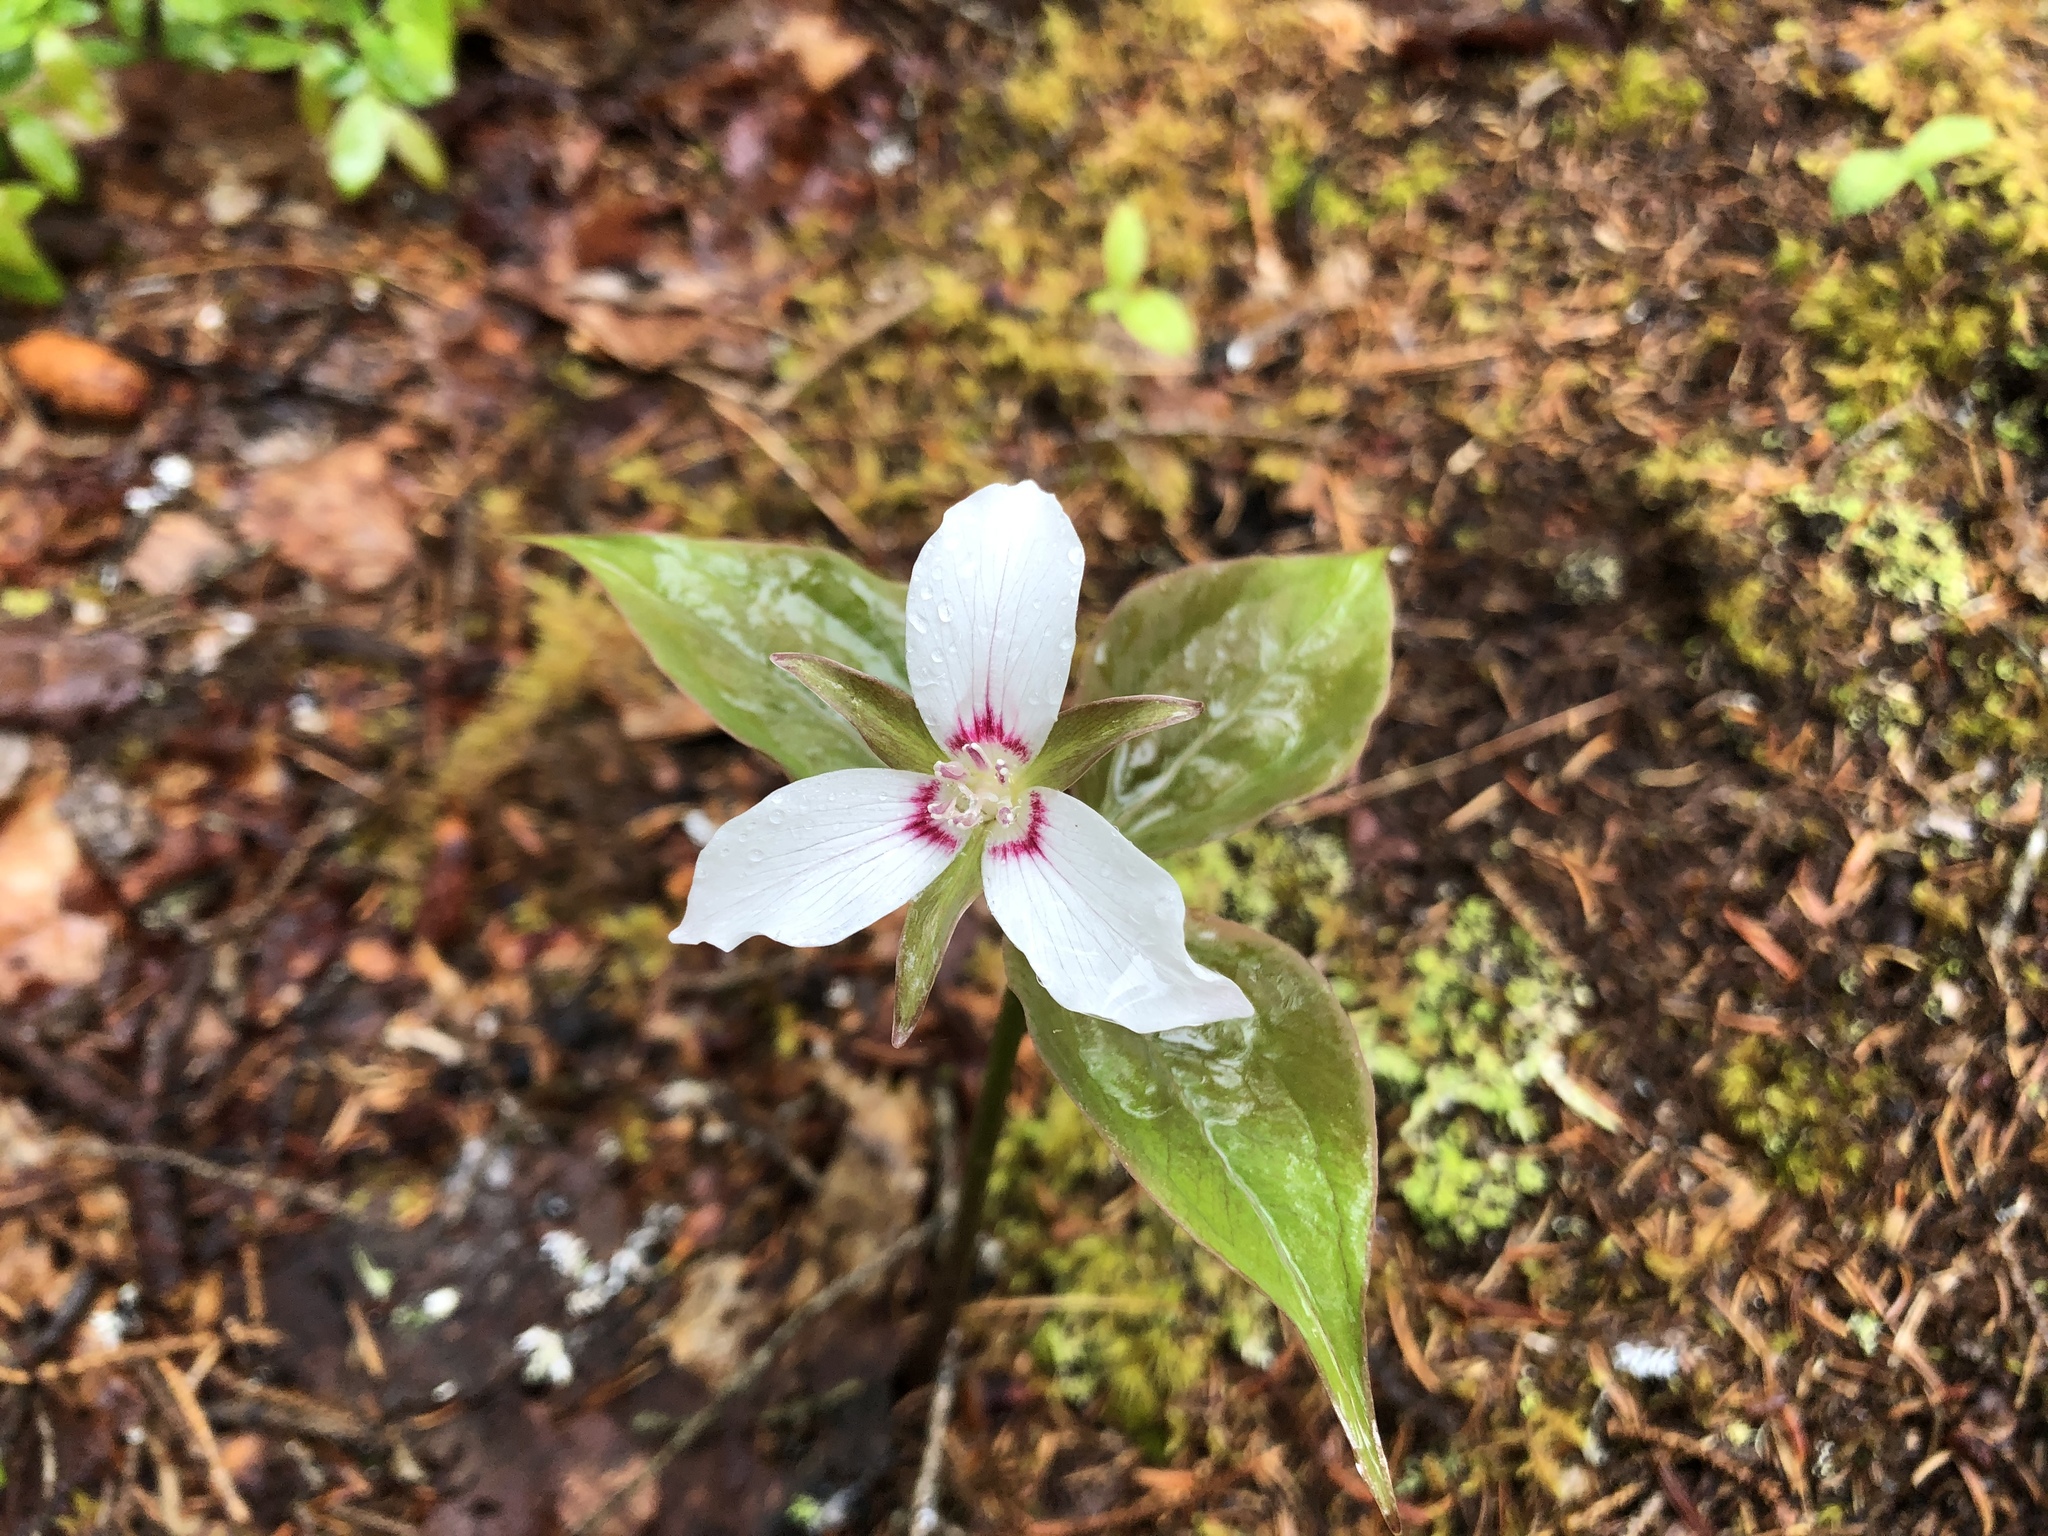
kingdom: Plantae
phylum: Tracheophyta
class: Liliopsida
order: Liliales
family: Melanthiaceae
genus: Trillium
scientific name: Trillium undulatum
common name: Paint trillium
